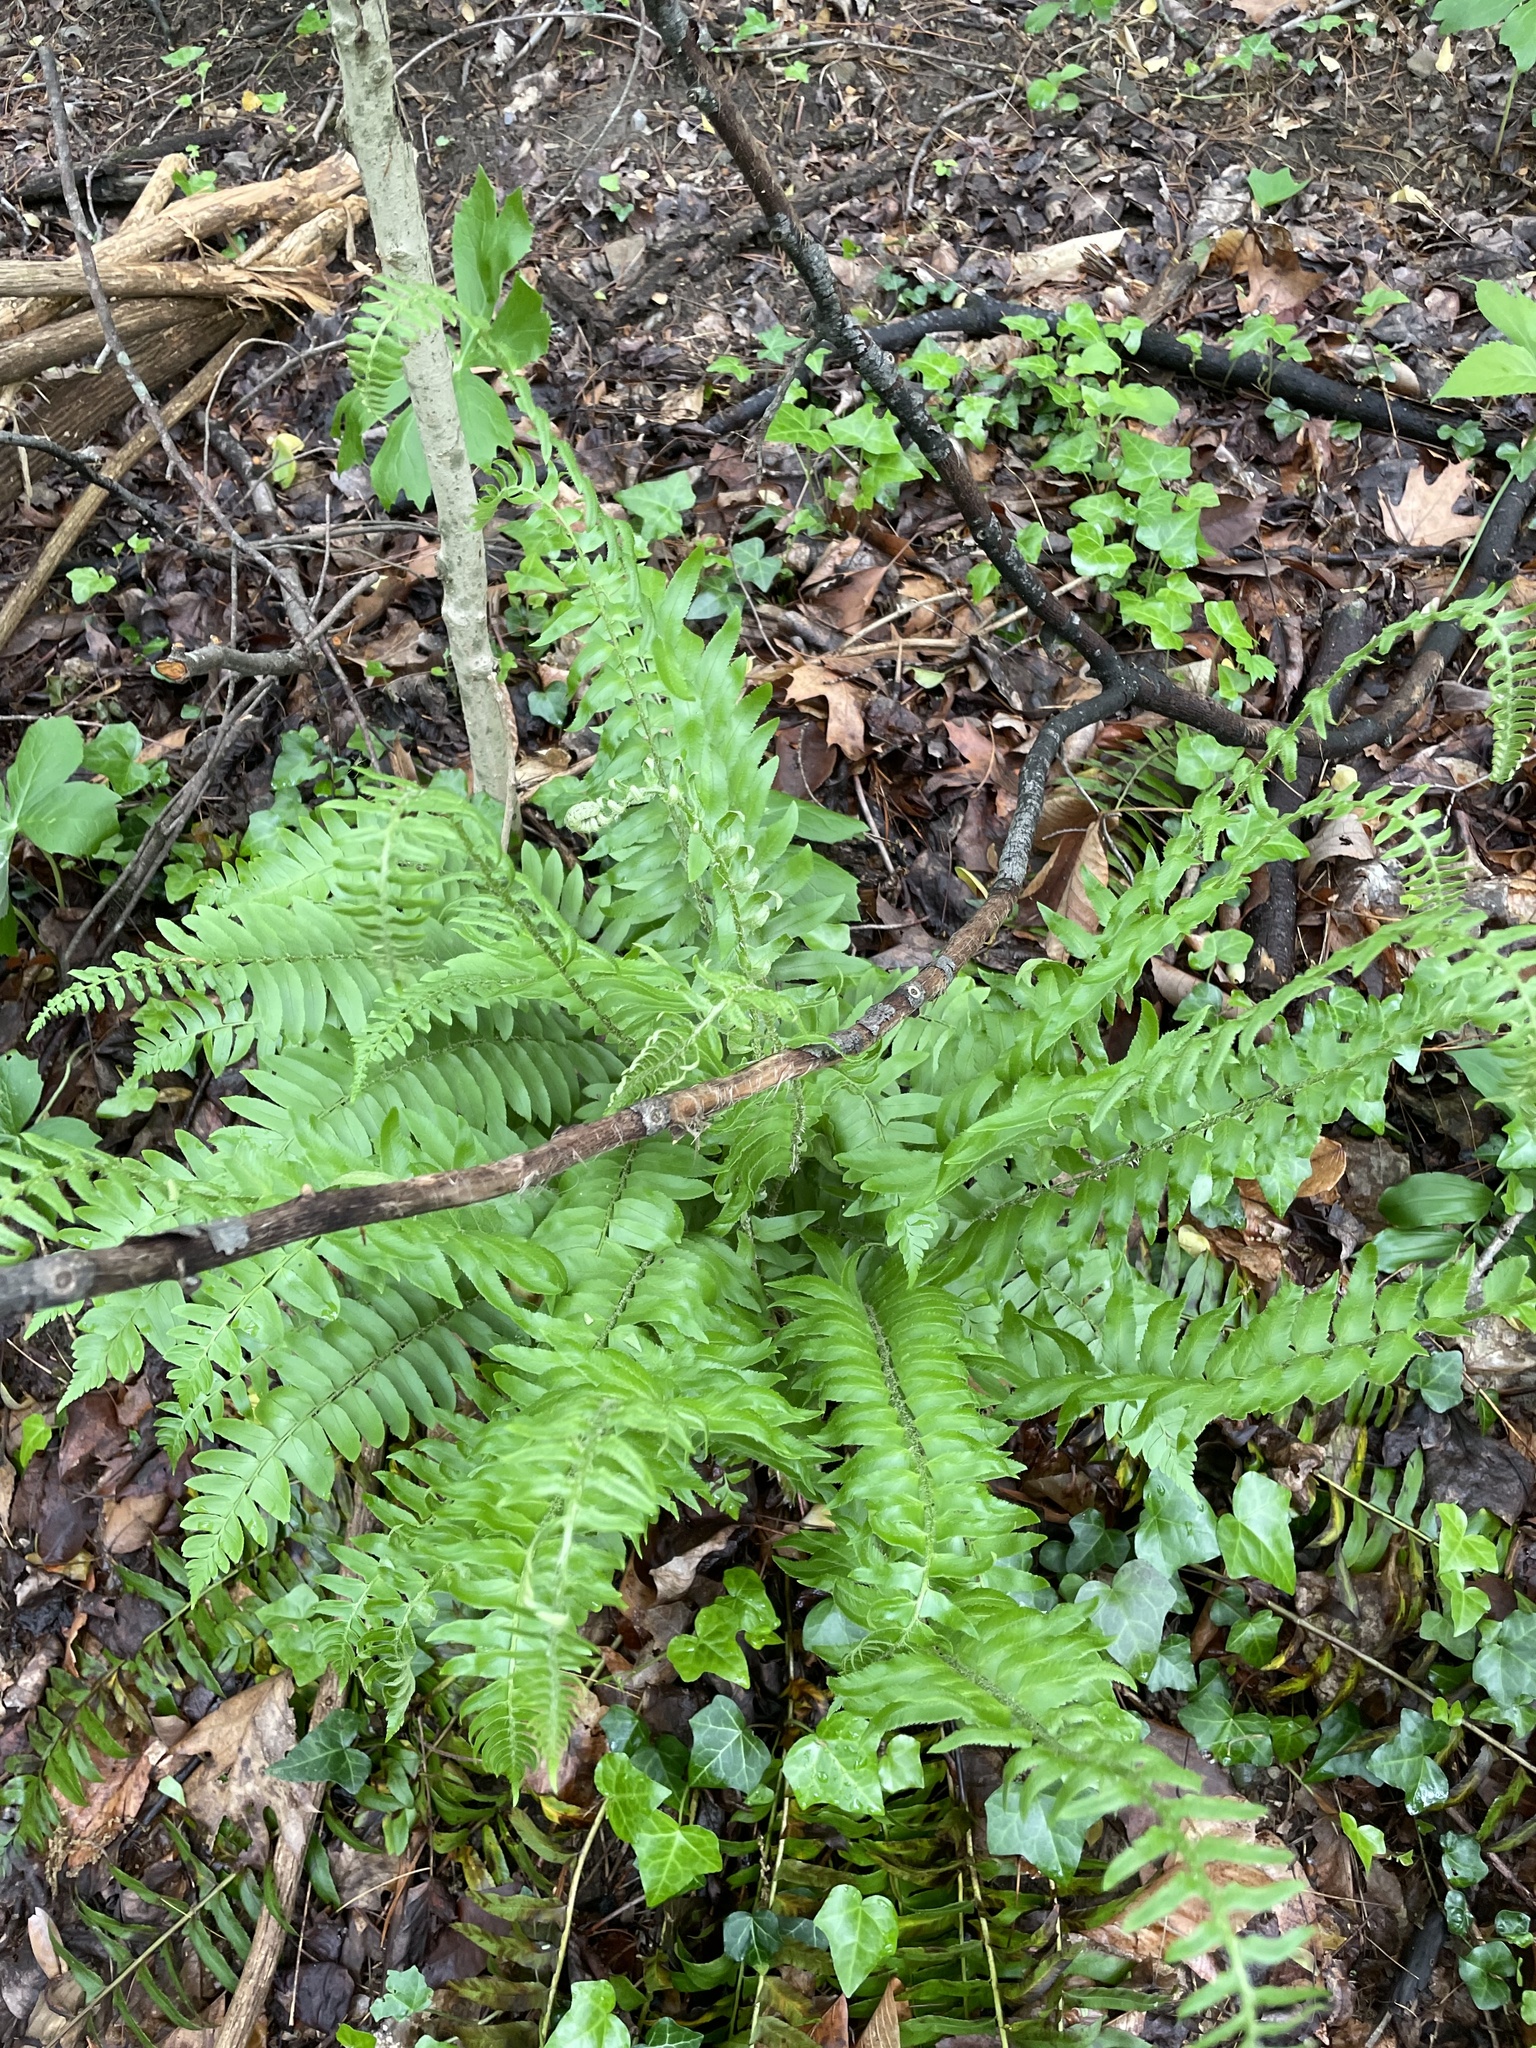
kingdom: Plantae
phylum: Tracheophyta
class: Polypodiopsida
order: Polypodiales
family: Dryopteridaceae
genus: Polystichum
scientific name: Polystichum acrostichoides
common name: Christmas fern
